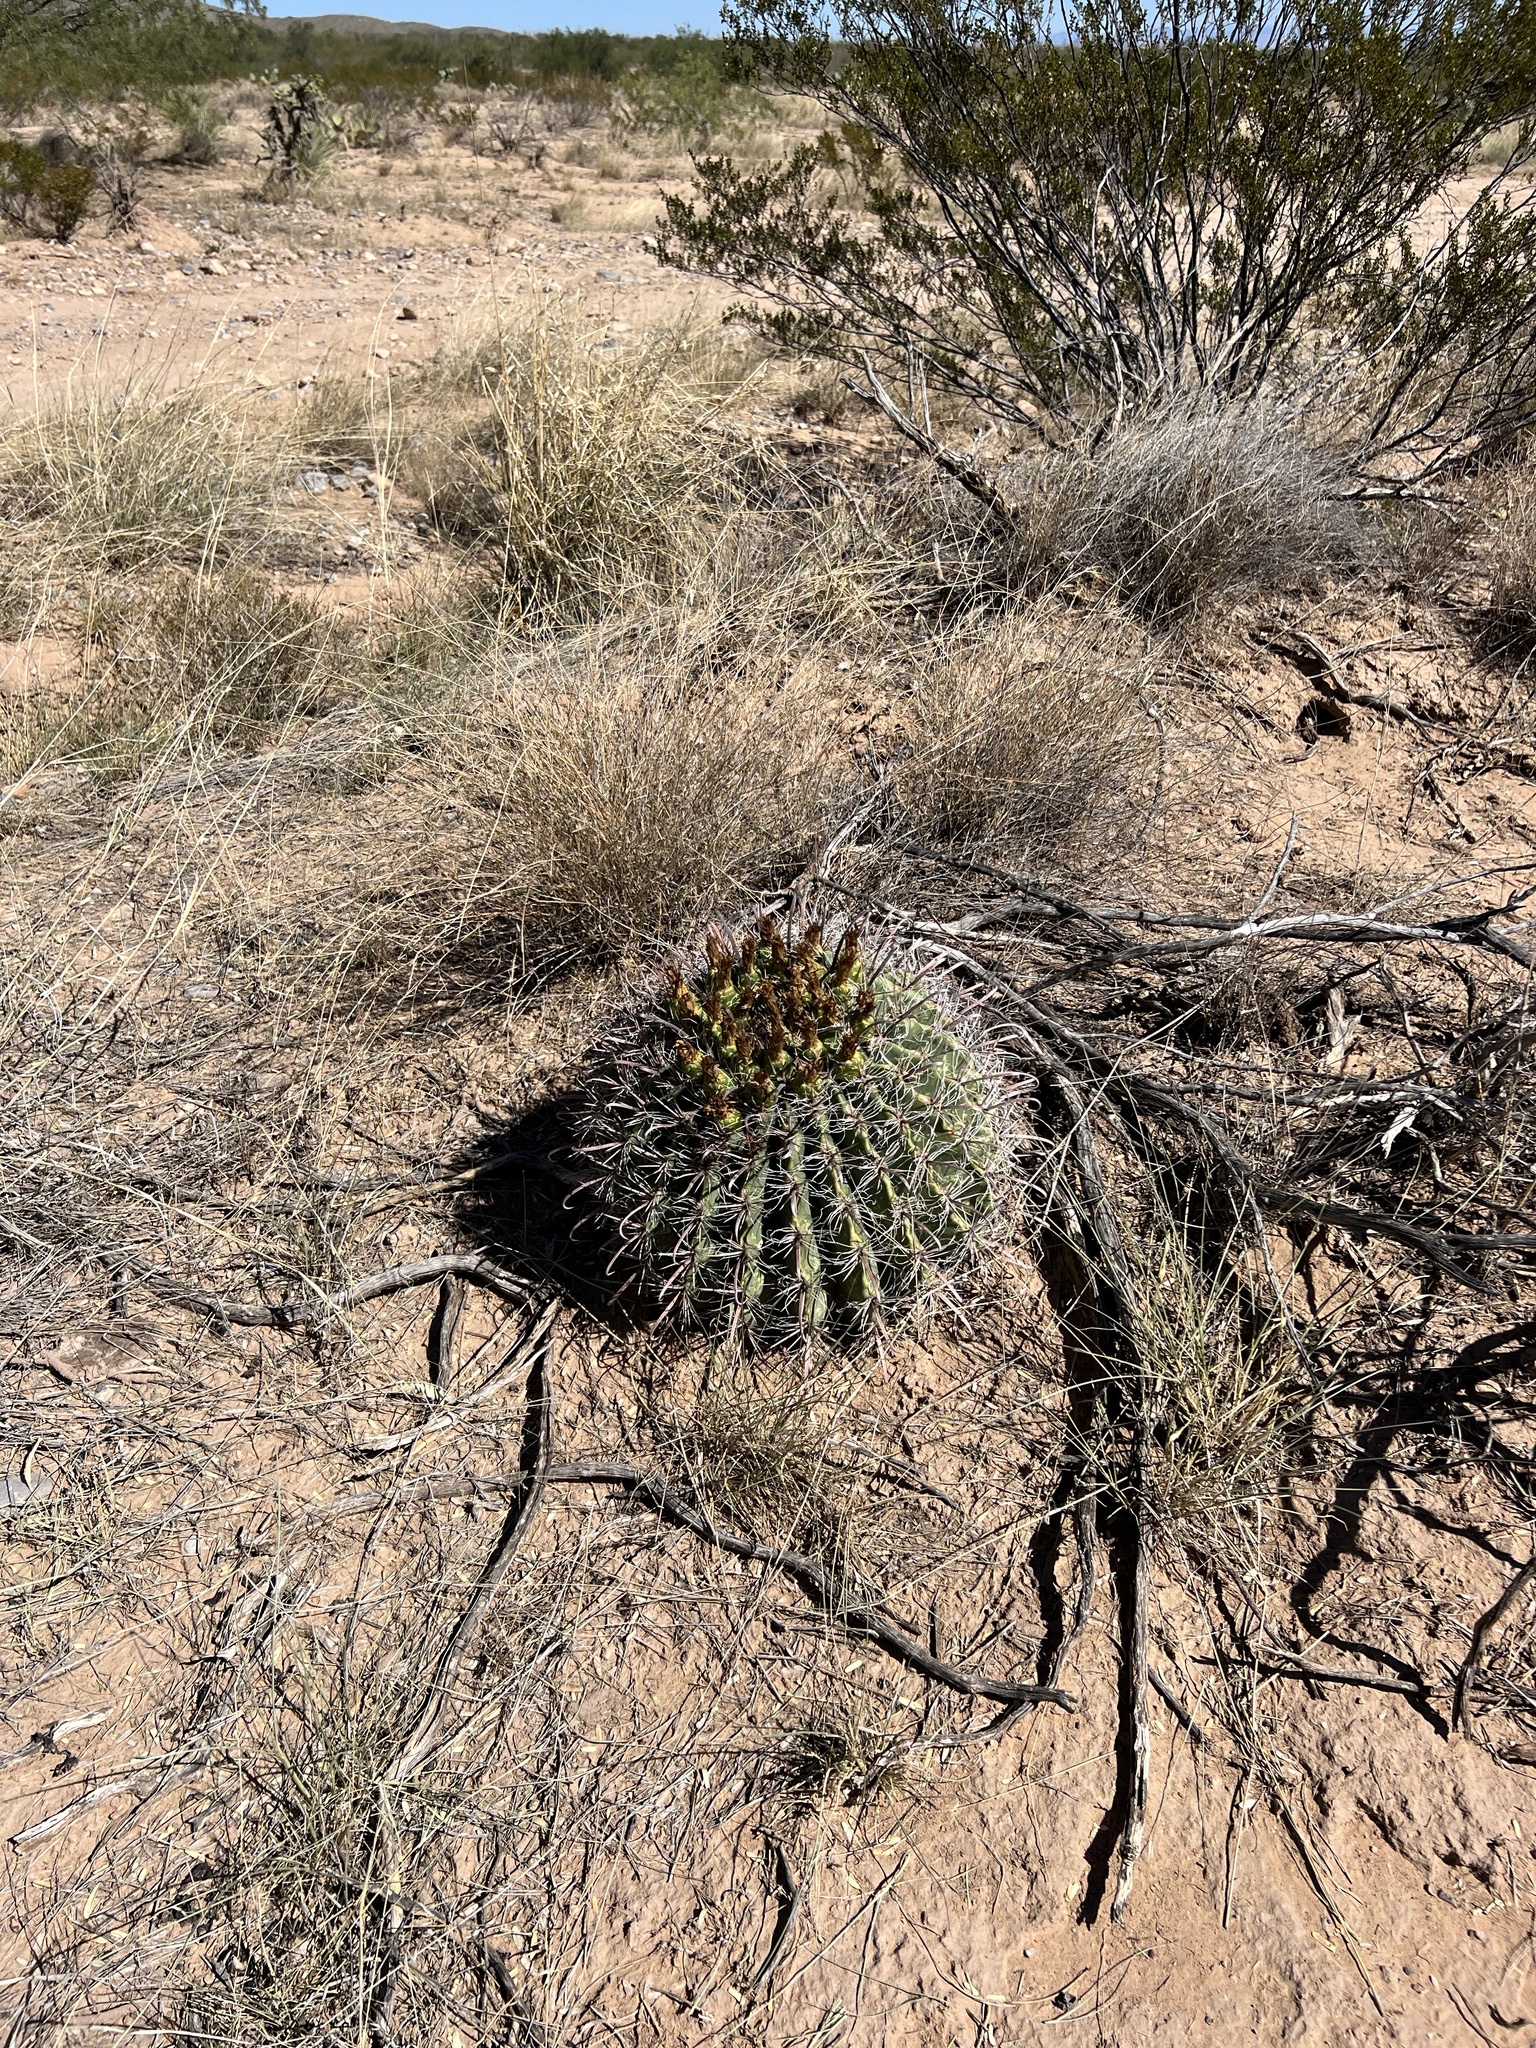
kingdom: Plantae
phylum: Tracheophyta
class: Magnoliopsida
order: Caryophyllales
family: Cactaceae
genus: Ferocactus
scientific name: Ferocactus wislizeni
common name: Candy barrel cactus
